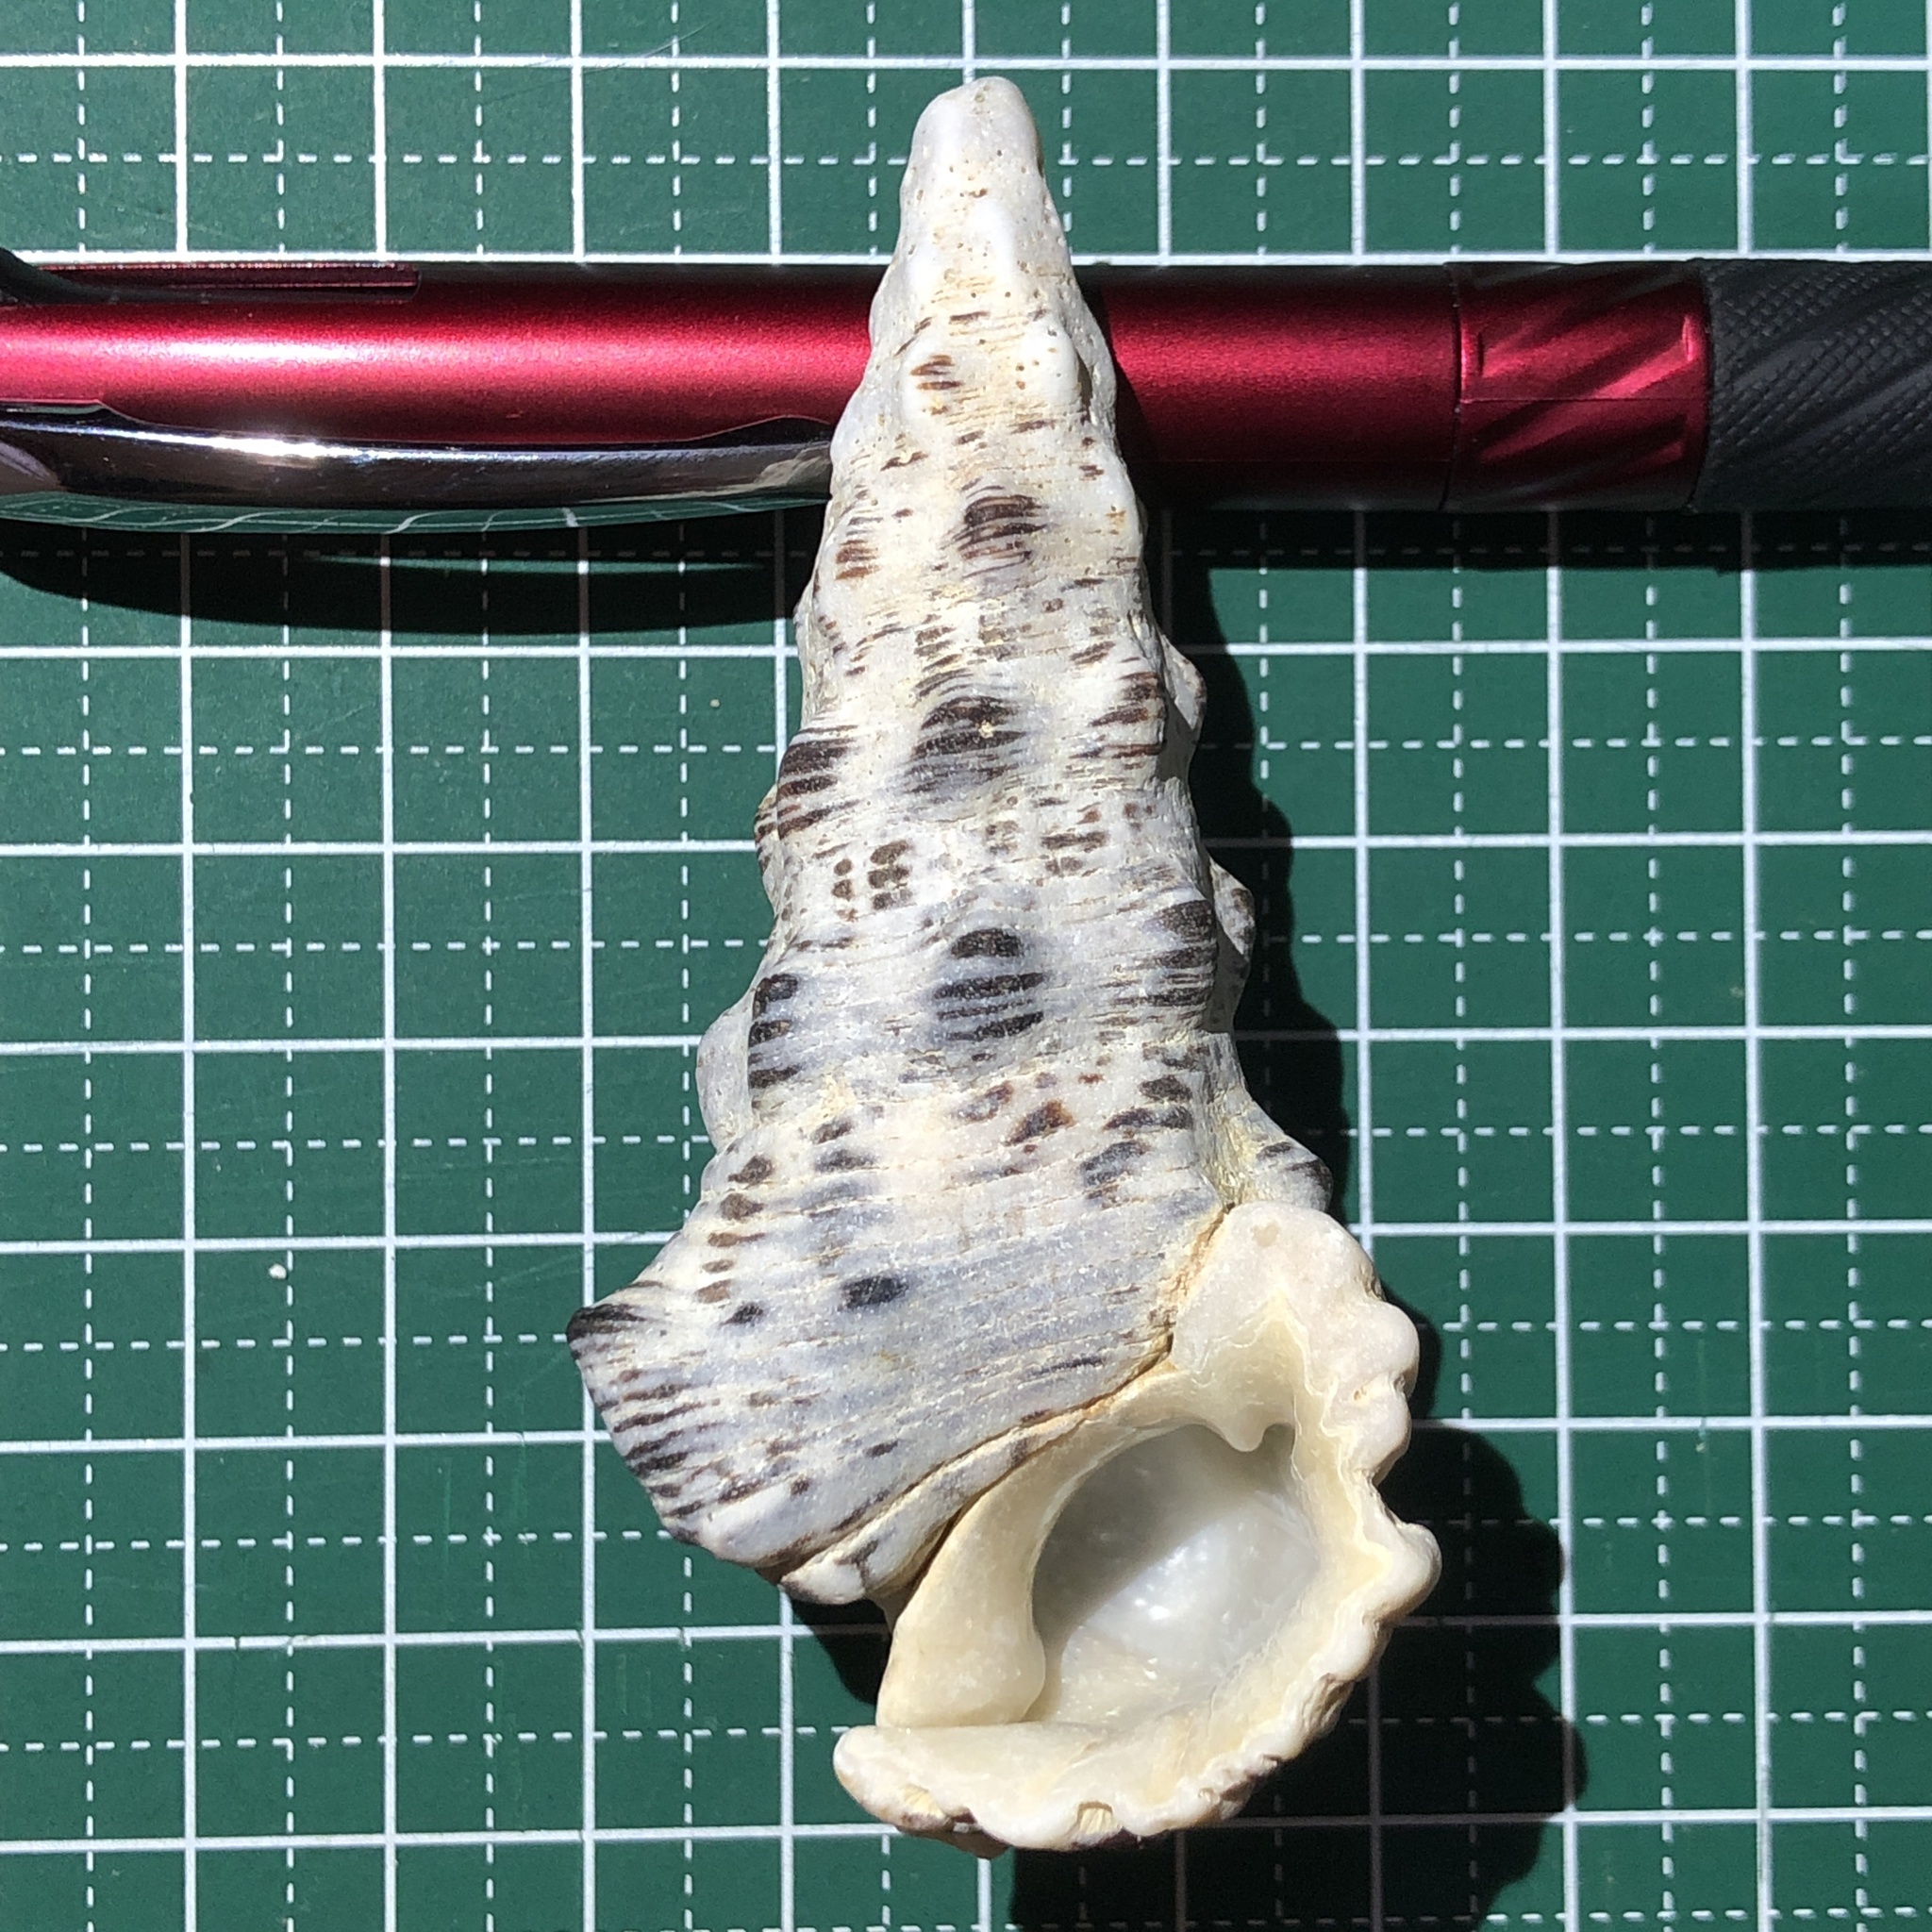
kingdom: Animalia
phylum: Mollusca
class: Gastropoda
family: Cerithiidae
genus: Cerithium
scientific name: Cerithium nodulosum
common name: Nadelschnecke giant knobbed cerith
